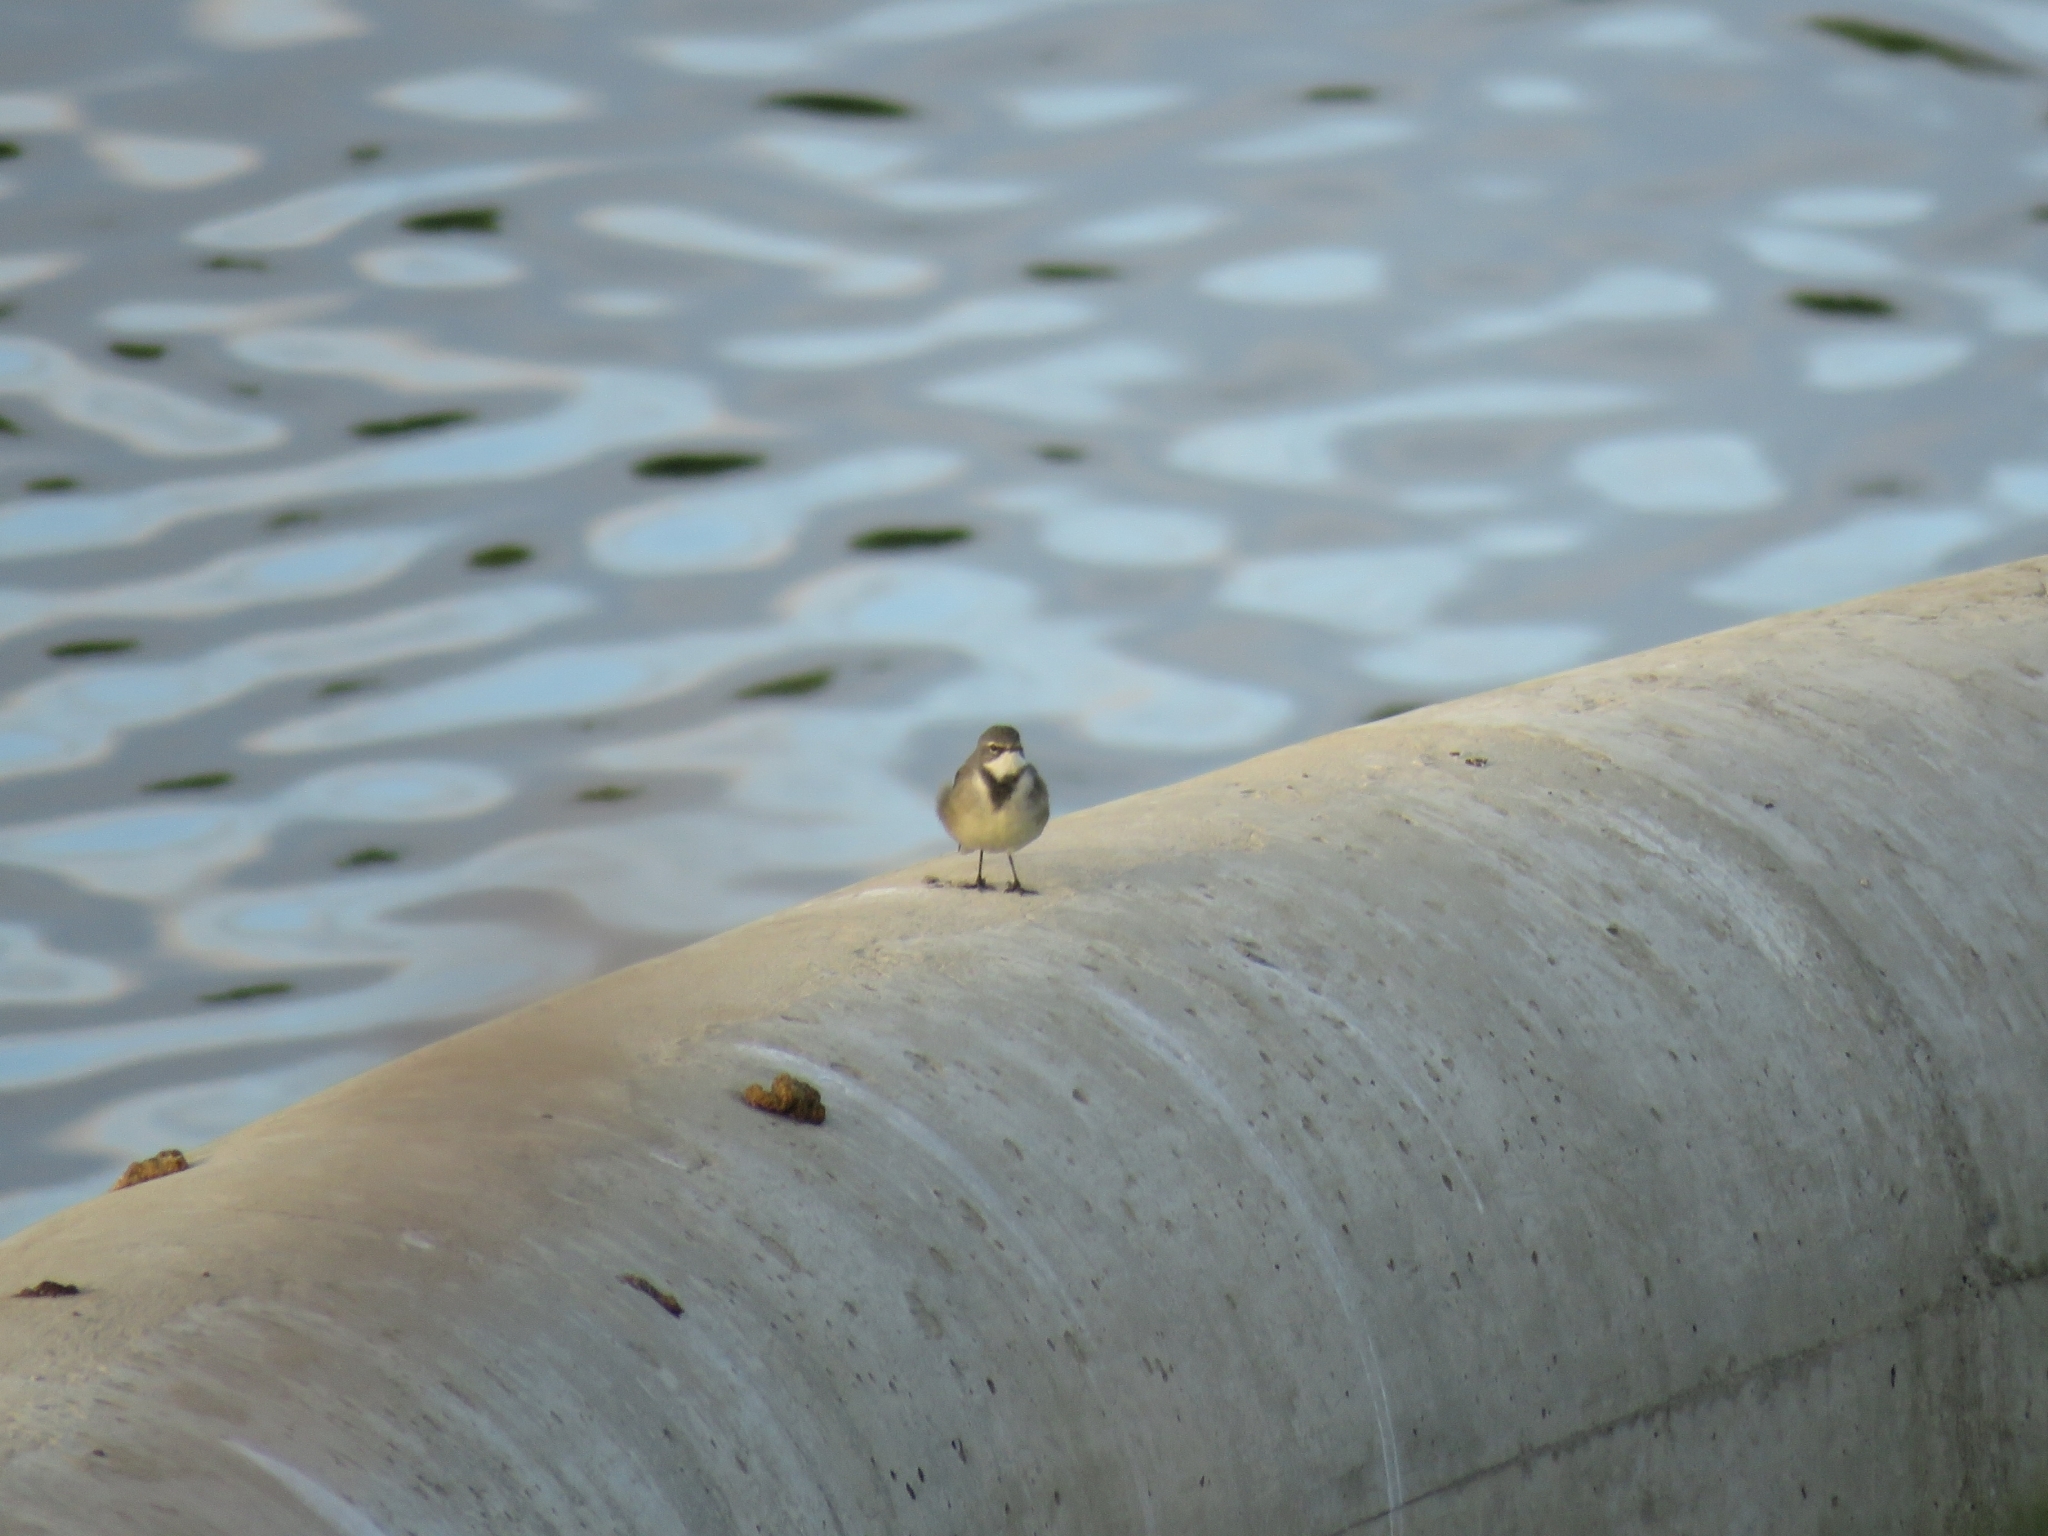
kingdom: Animalia
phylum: Chordata
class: Aves
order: Passeriformes
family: Motacillidae
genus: Motacilla
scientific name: Motacilla capensis
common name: Cape wagtail
